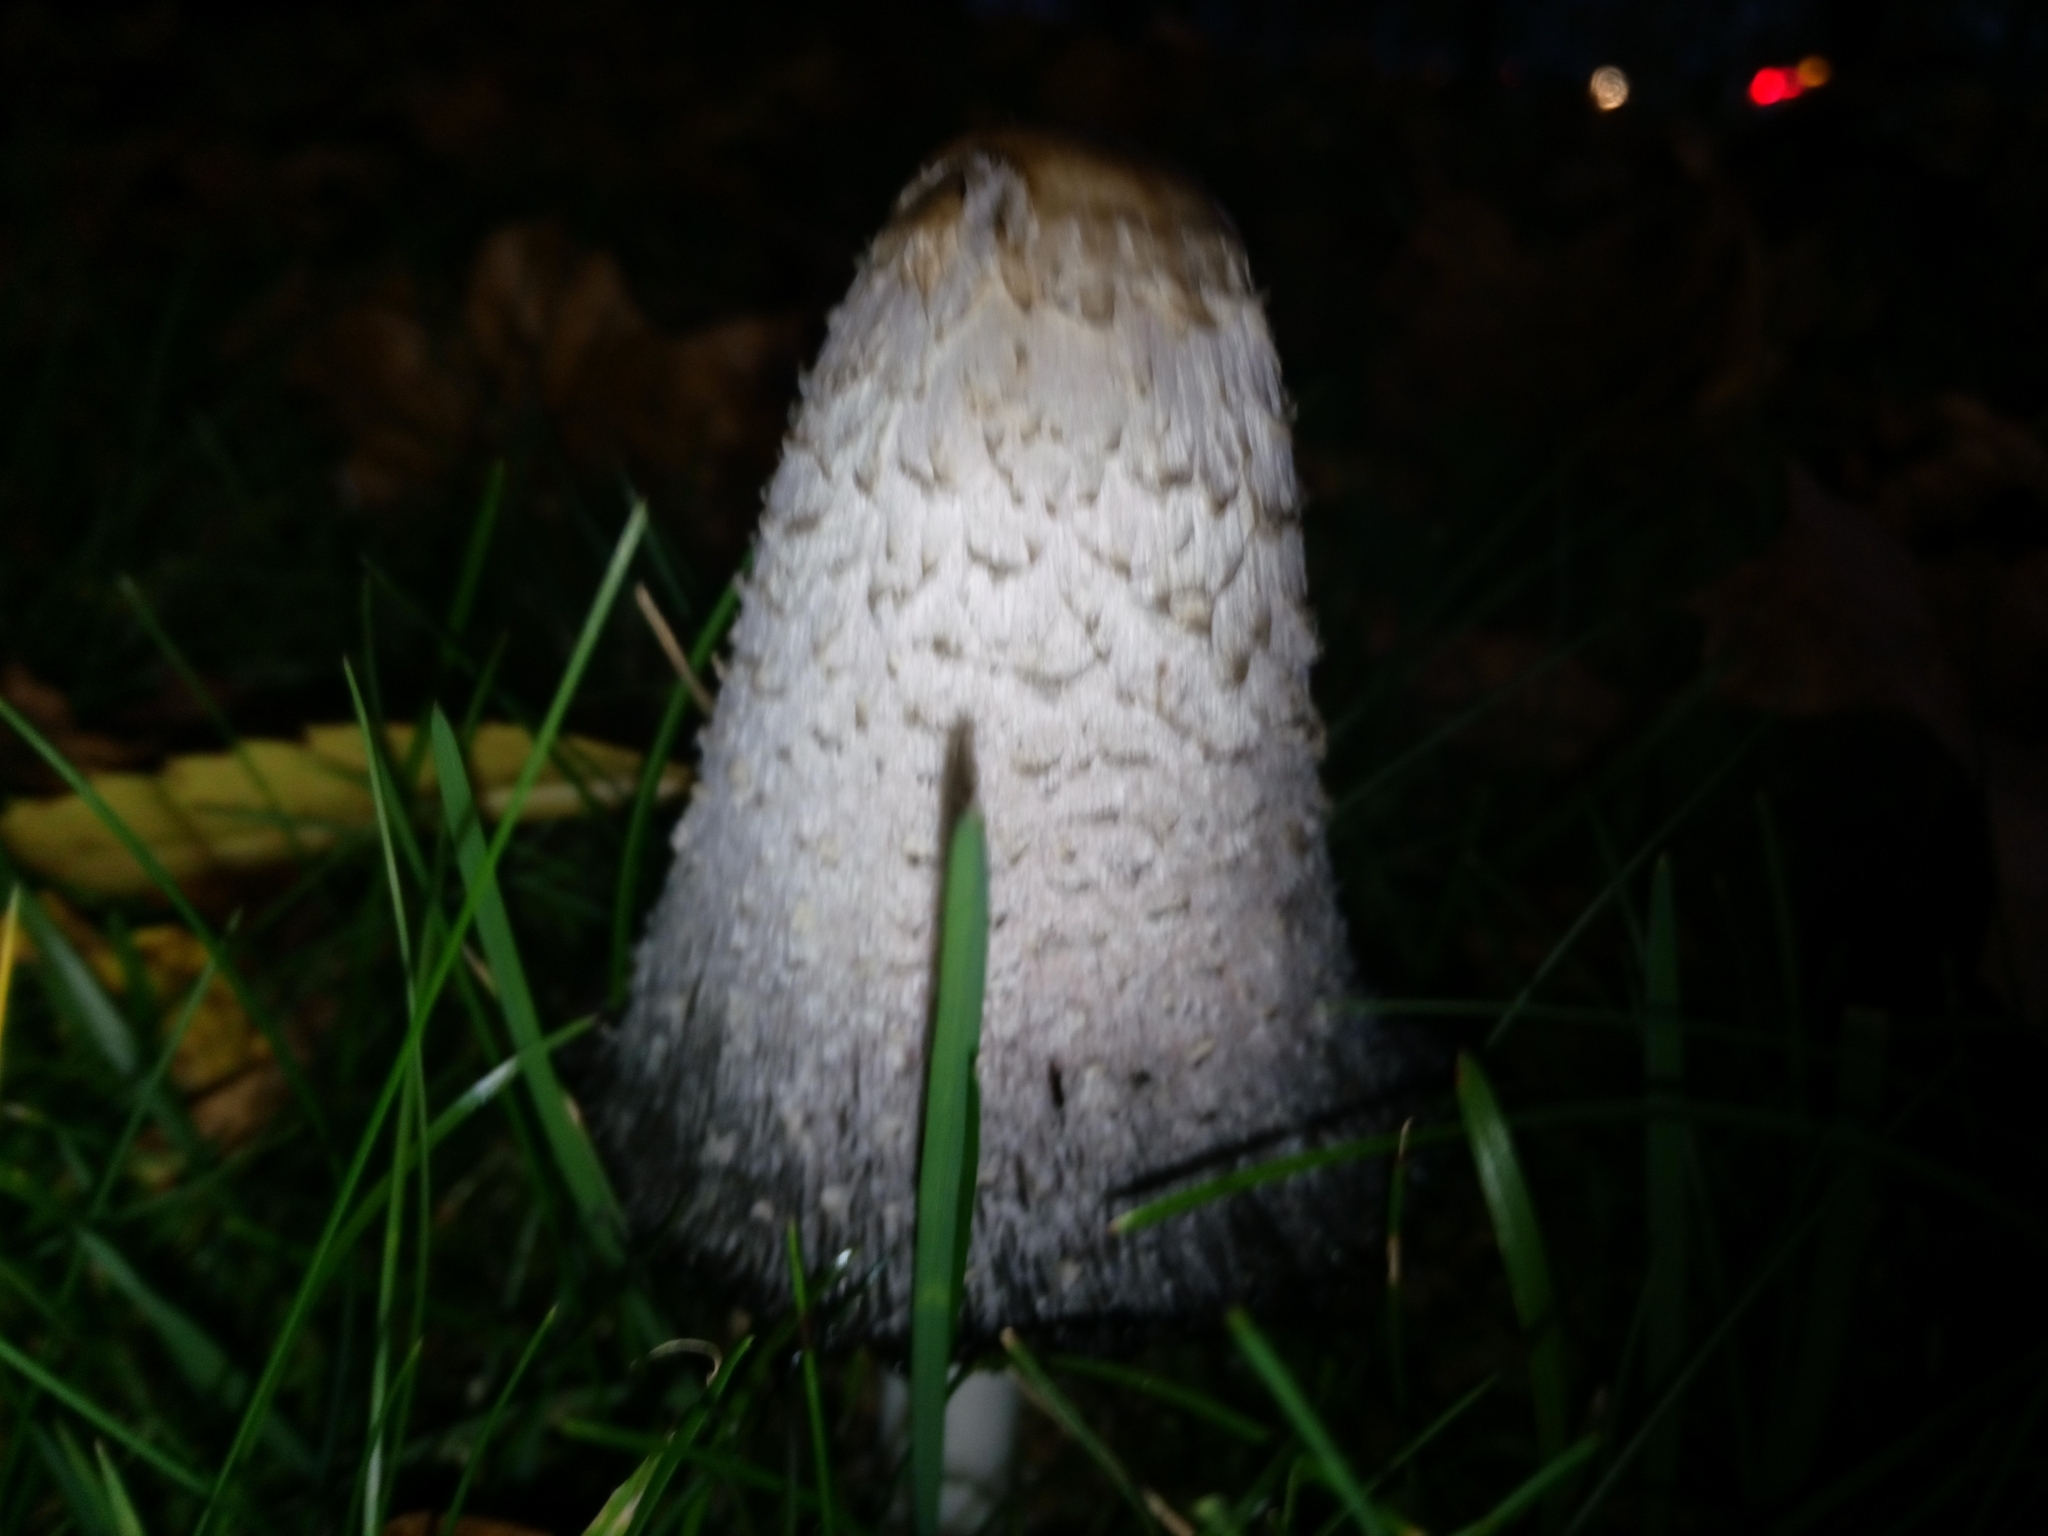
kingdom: Fungi
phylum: Basidiomycota
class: Agaricomycetes
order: Agaricales
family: Agaricaceae
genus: Coprinus
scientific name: Coprinus comatus
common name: Lawyer's wig
